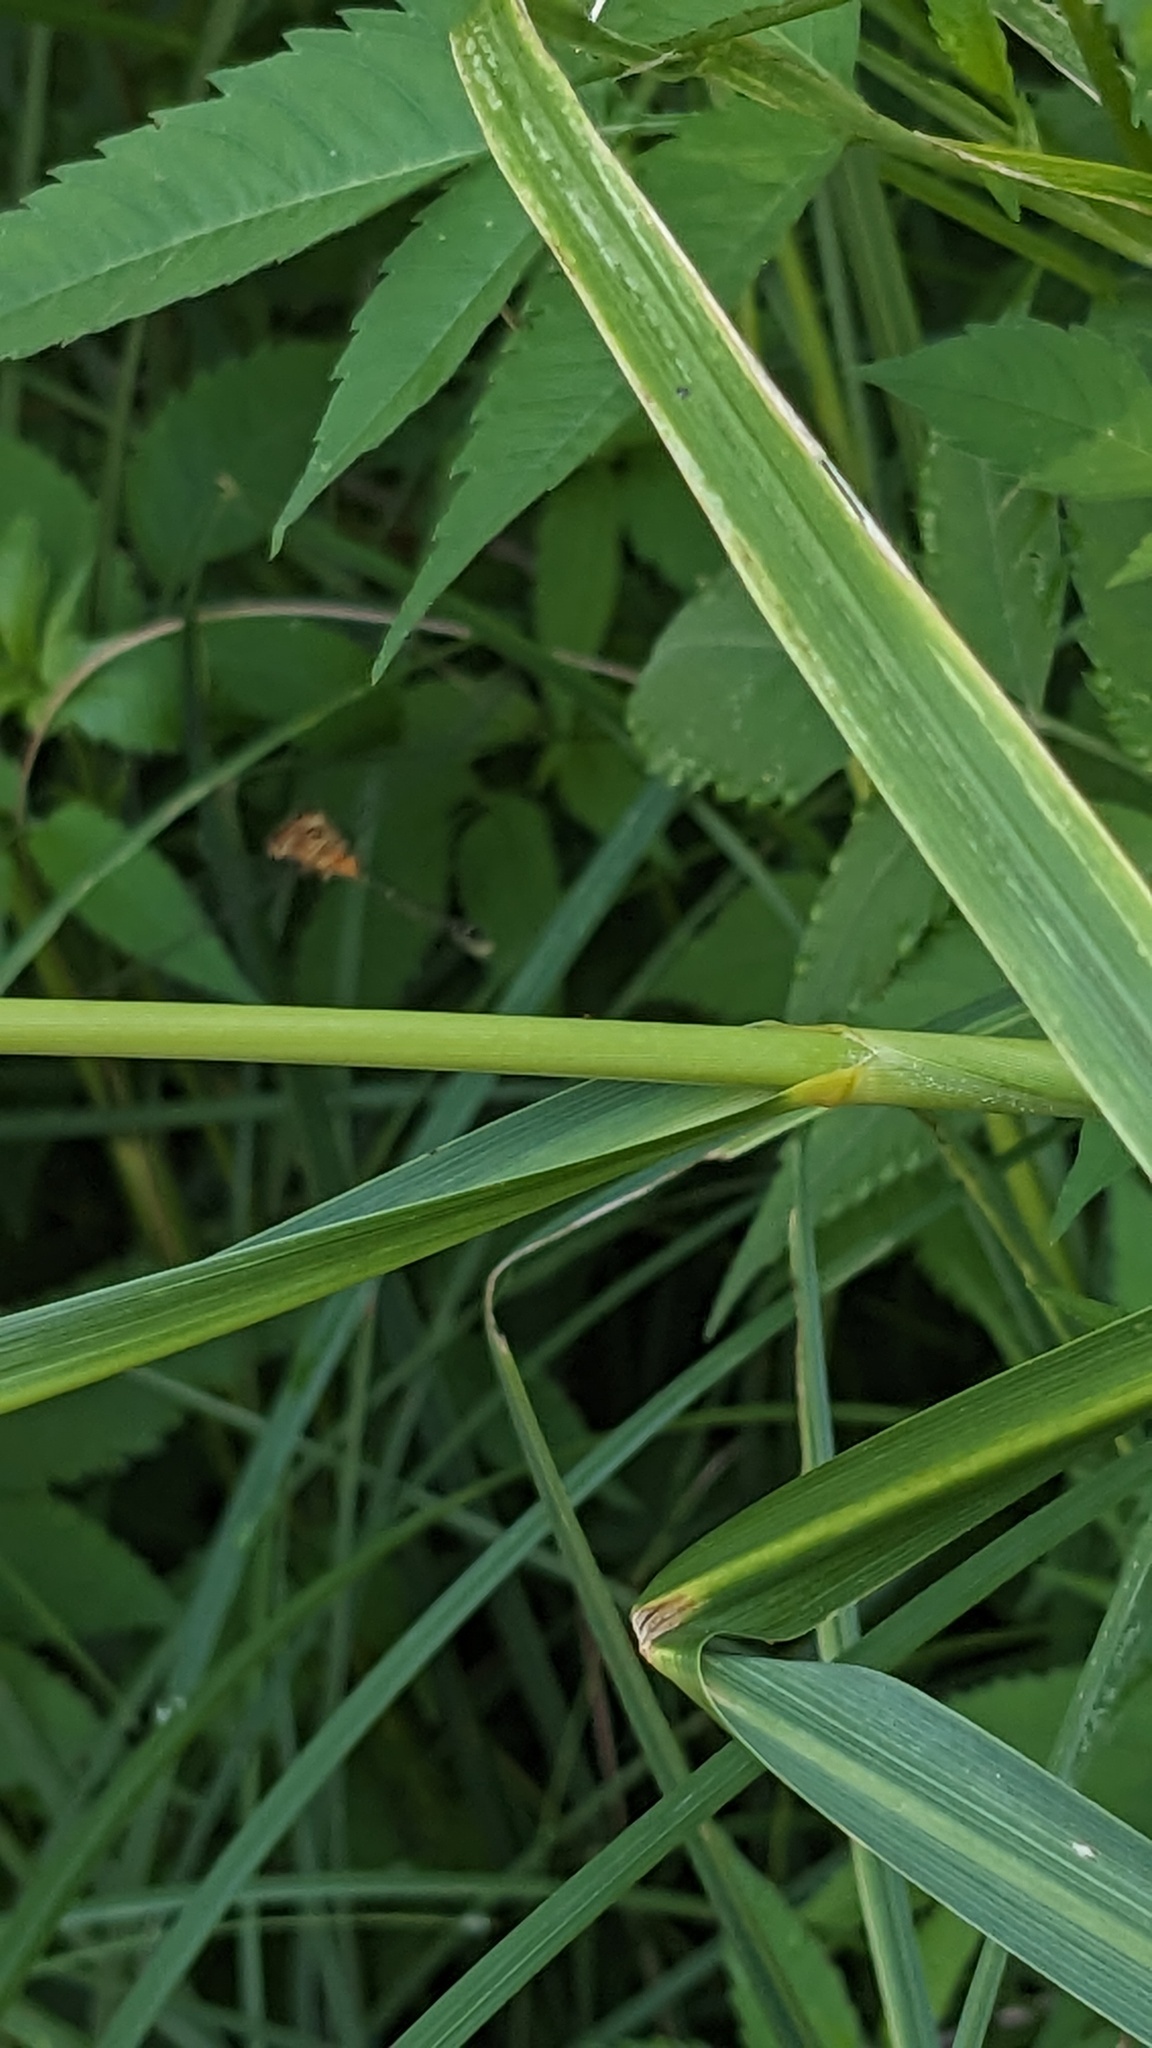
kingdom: Animalia
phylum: Arthropoda
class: Insecta
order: Odonata
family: Coenagrionidae
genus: Ischnura
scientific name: Ischnura verticalis
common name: Eastern forktail
